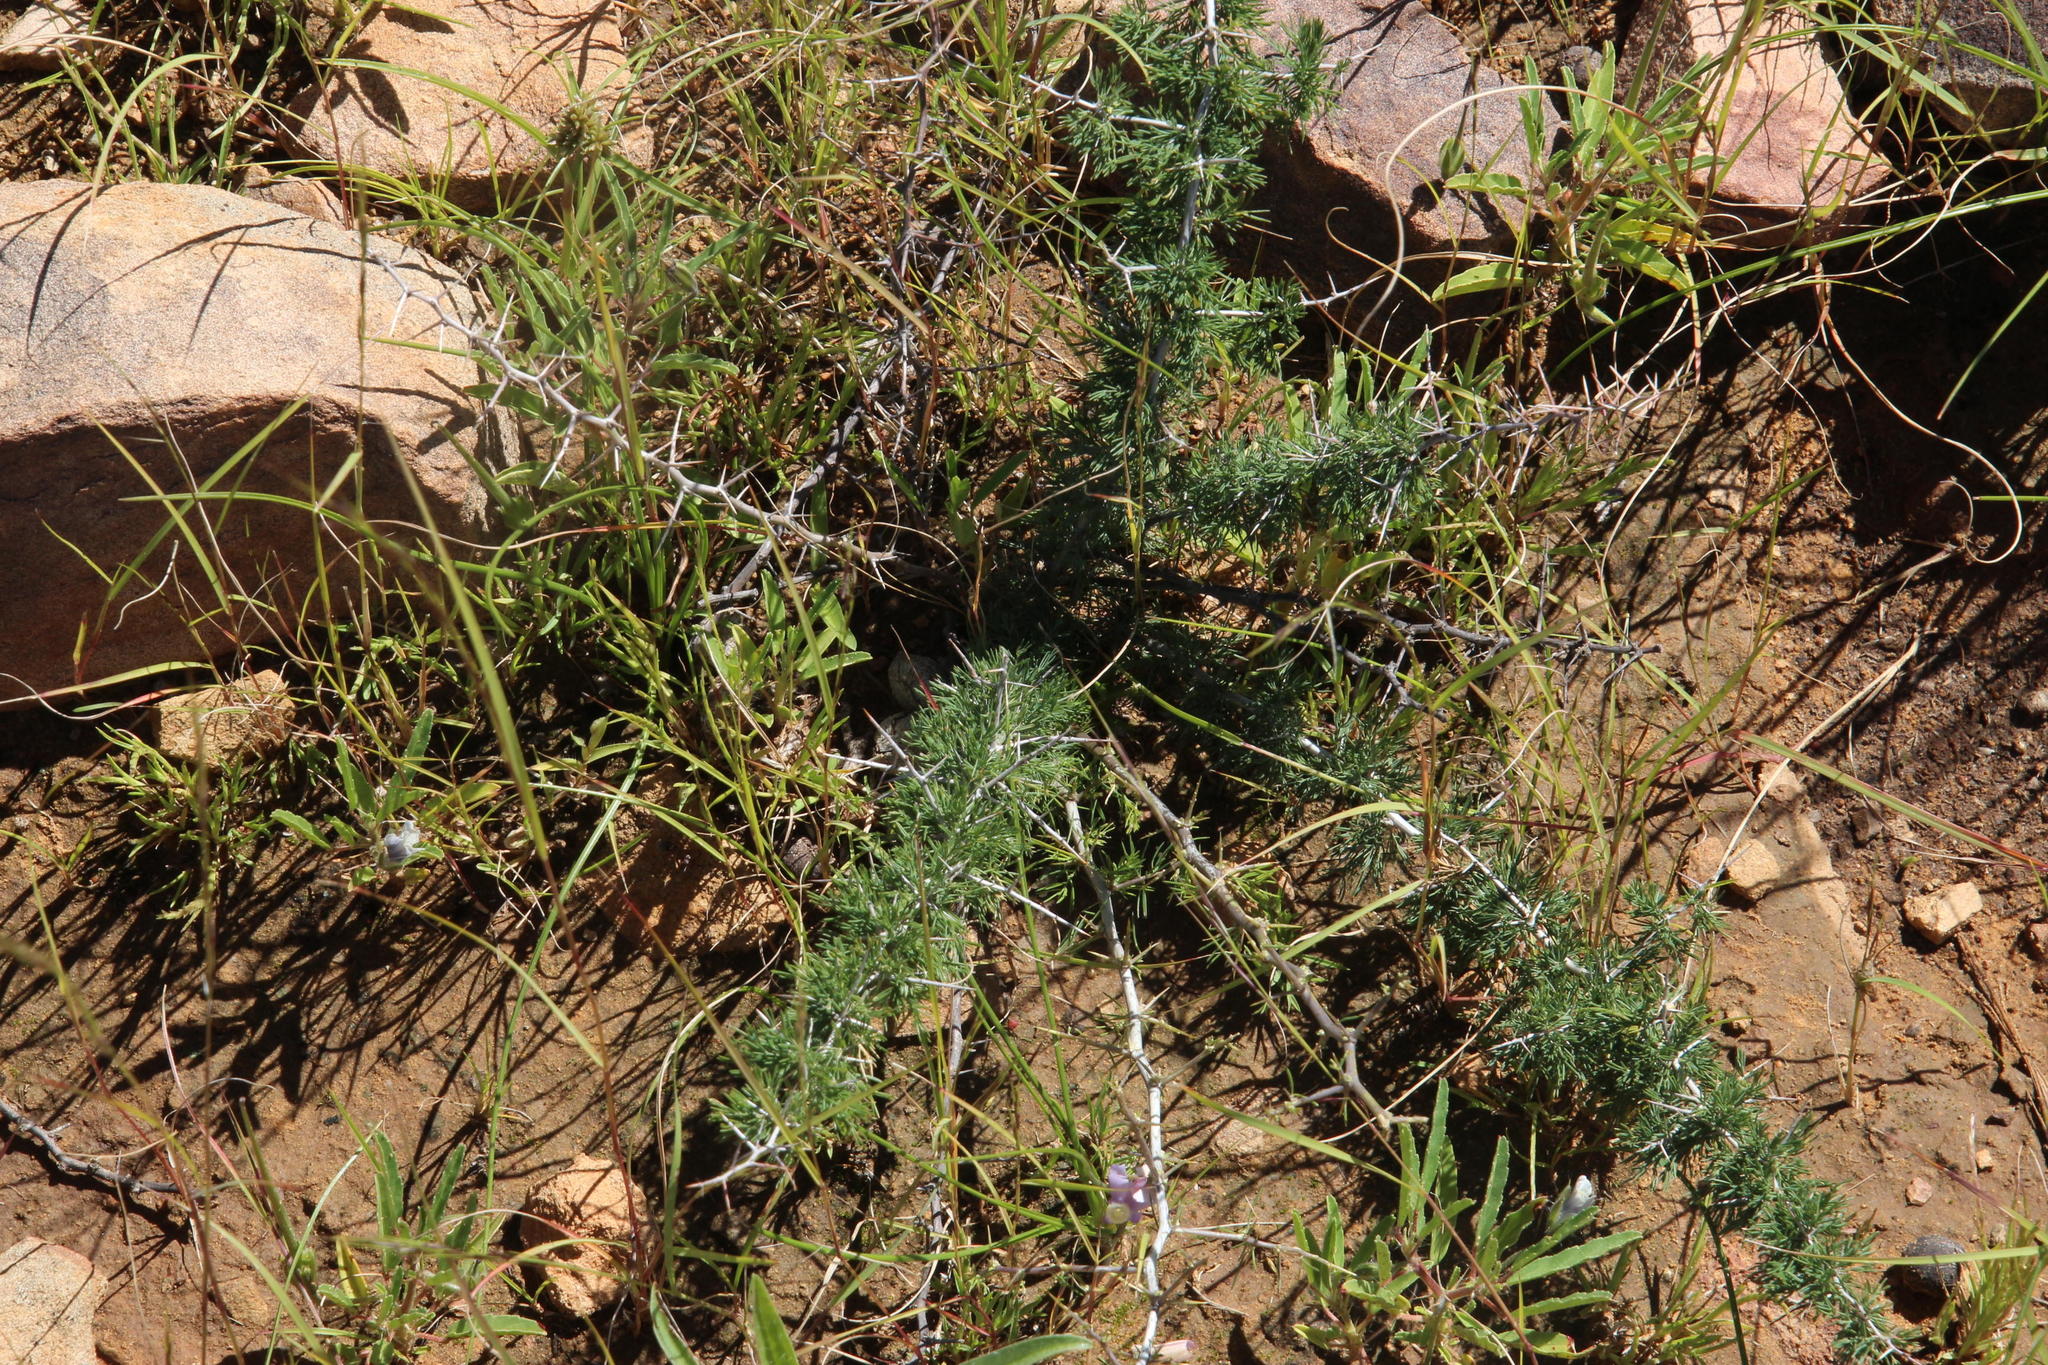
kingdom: Plantae
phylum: Tracheophyta
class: Liliopsida
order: Asparagales
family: Asparagaceae
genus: Asparagus
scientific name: Asparagus suaveolens
